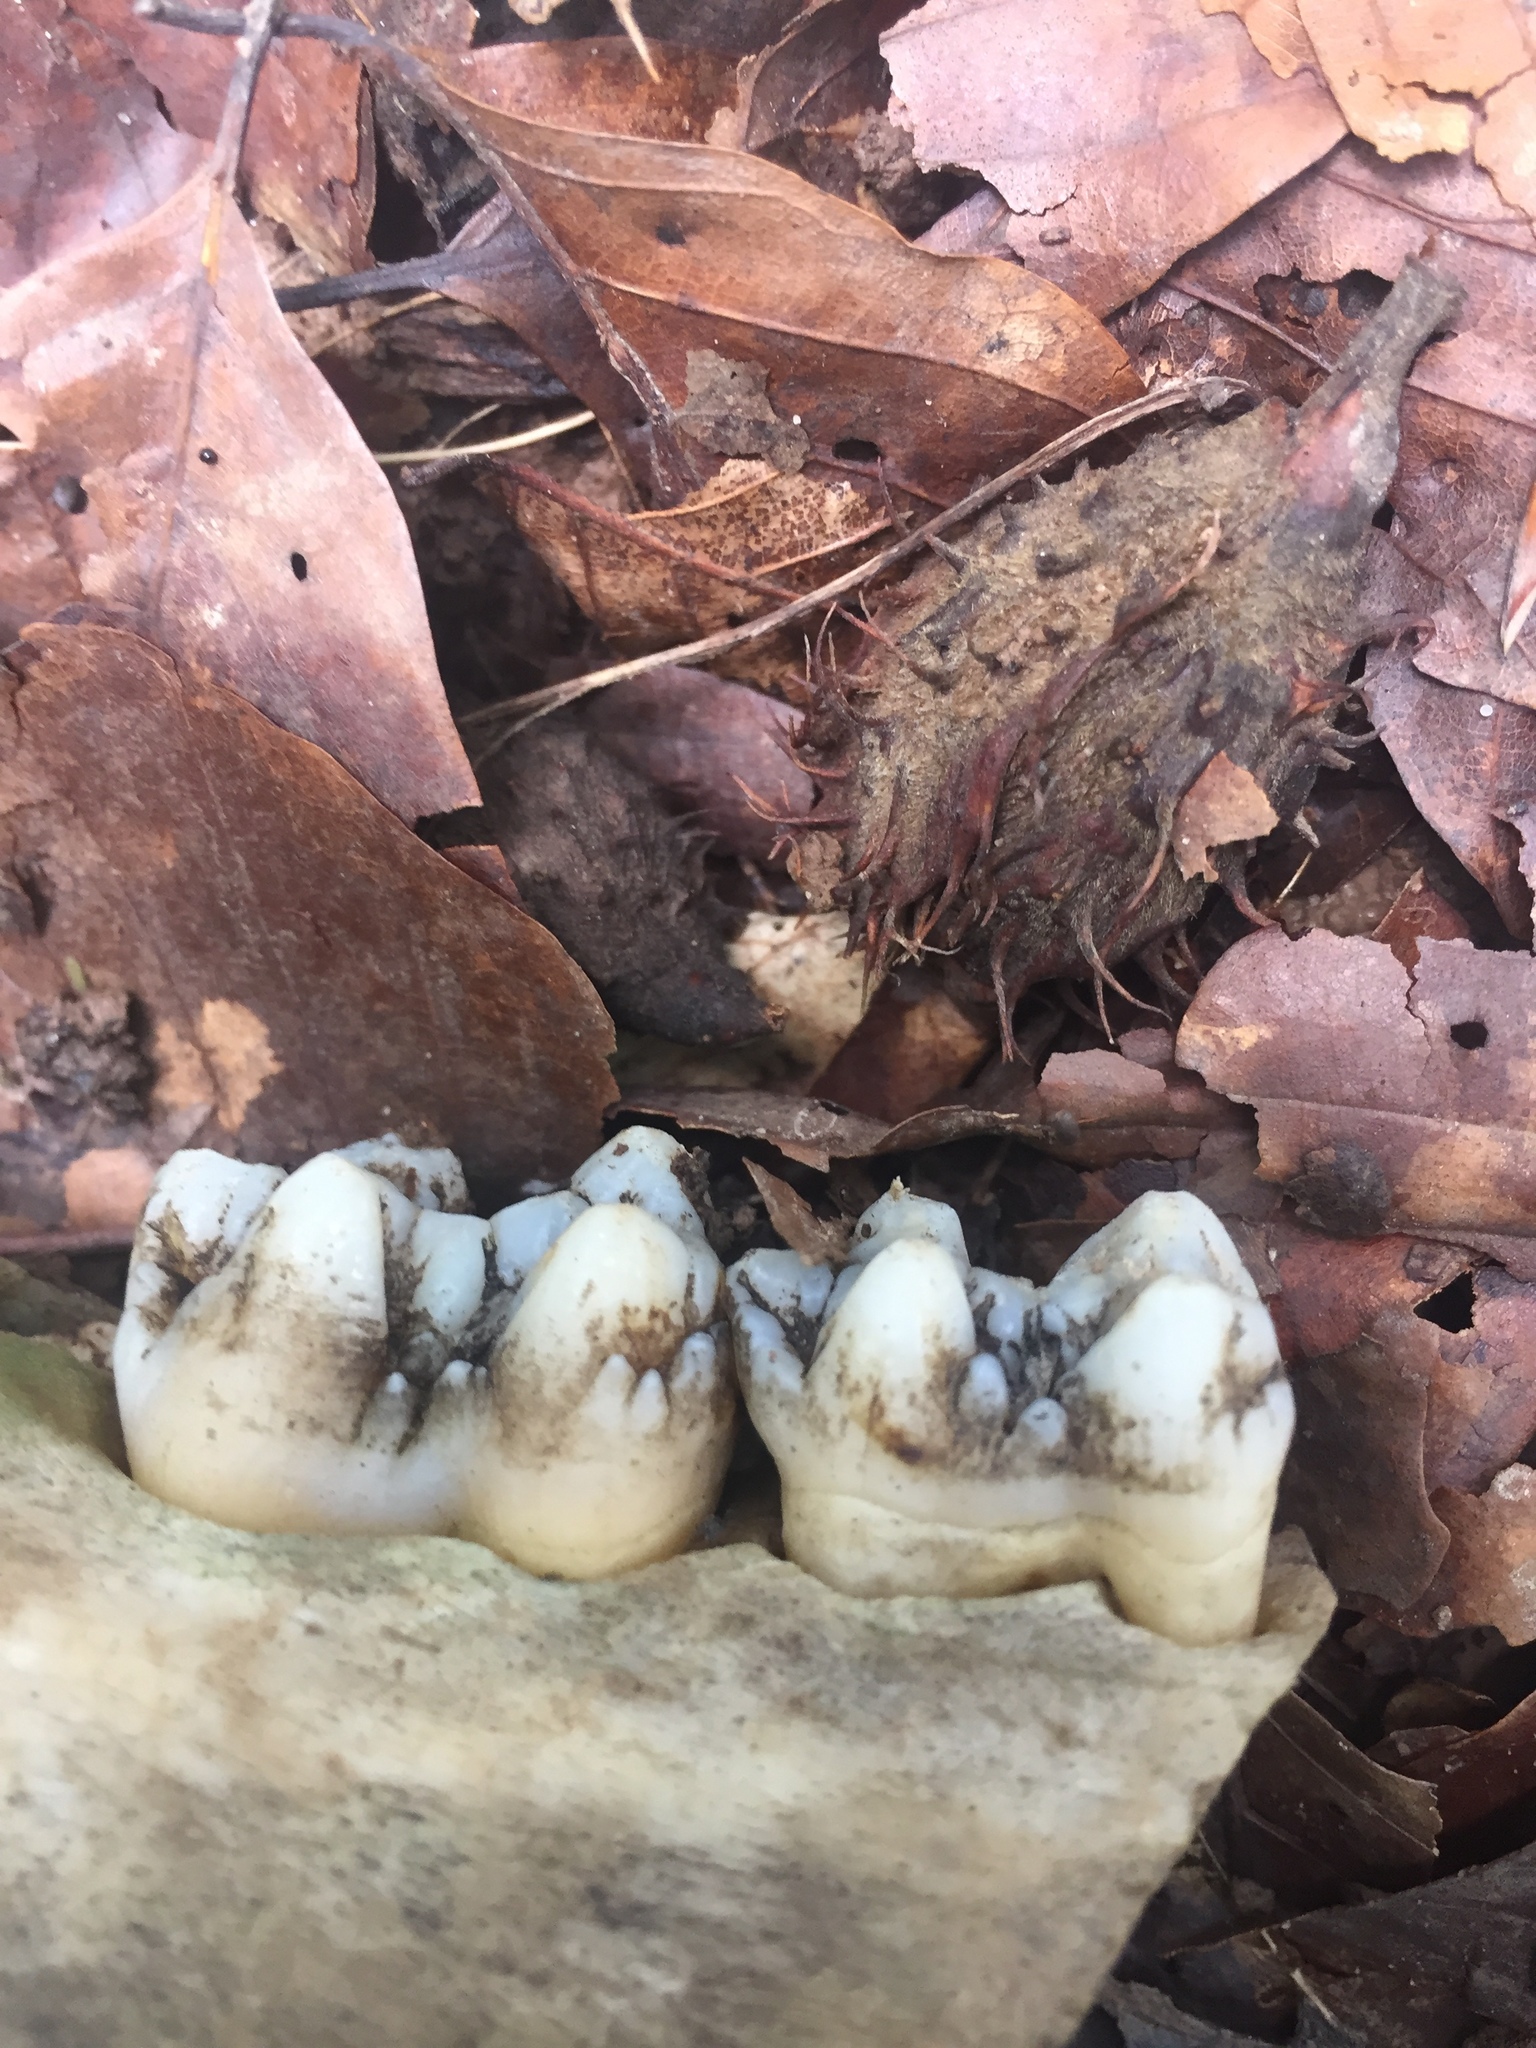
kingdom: Animalia
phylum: Chordata
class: Mammalia
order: Artiodactyla
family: Suidae
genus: Sus
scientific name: Sus scrofa
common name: Wild boar
